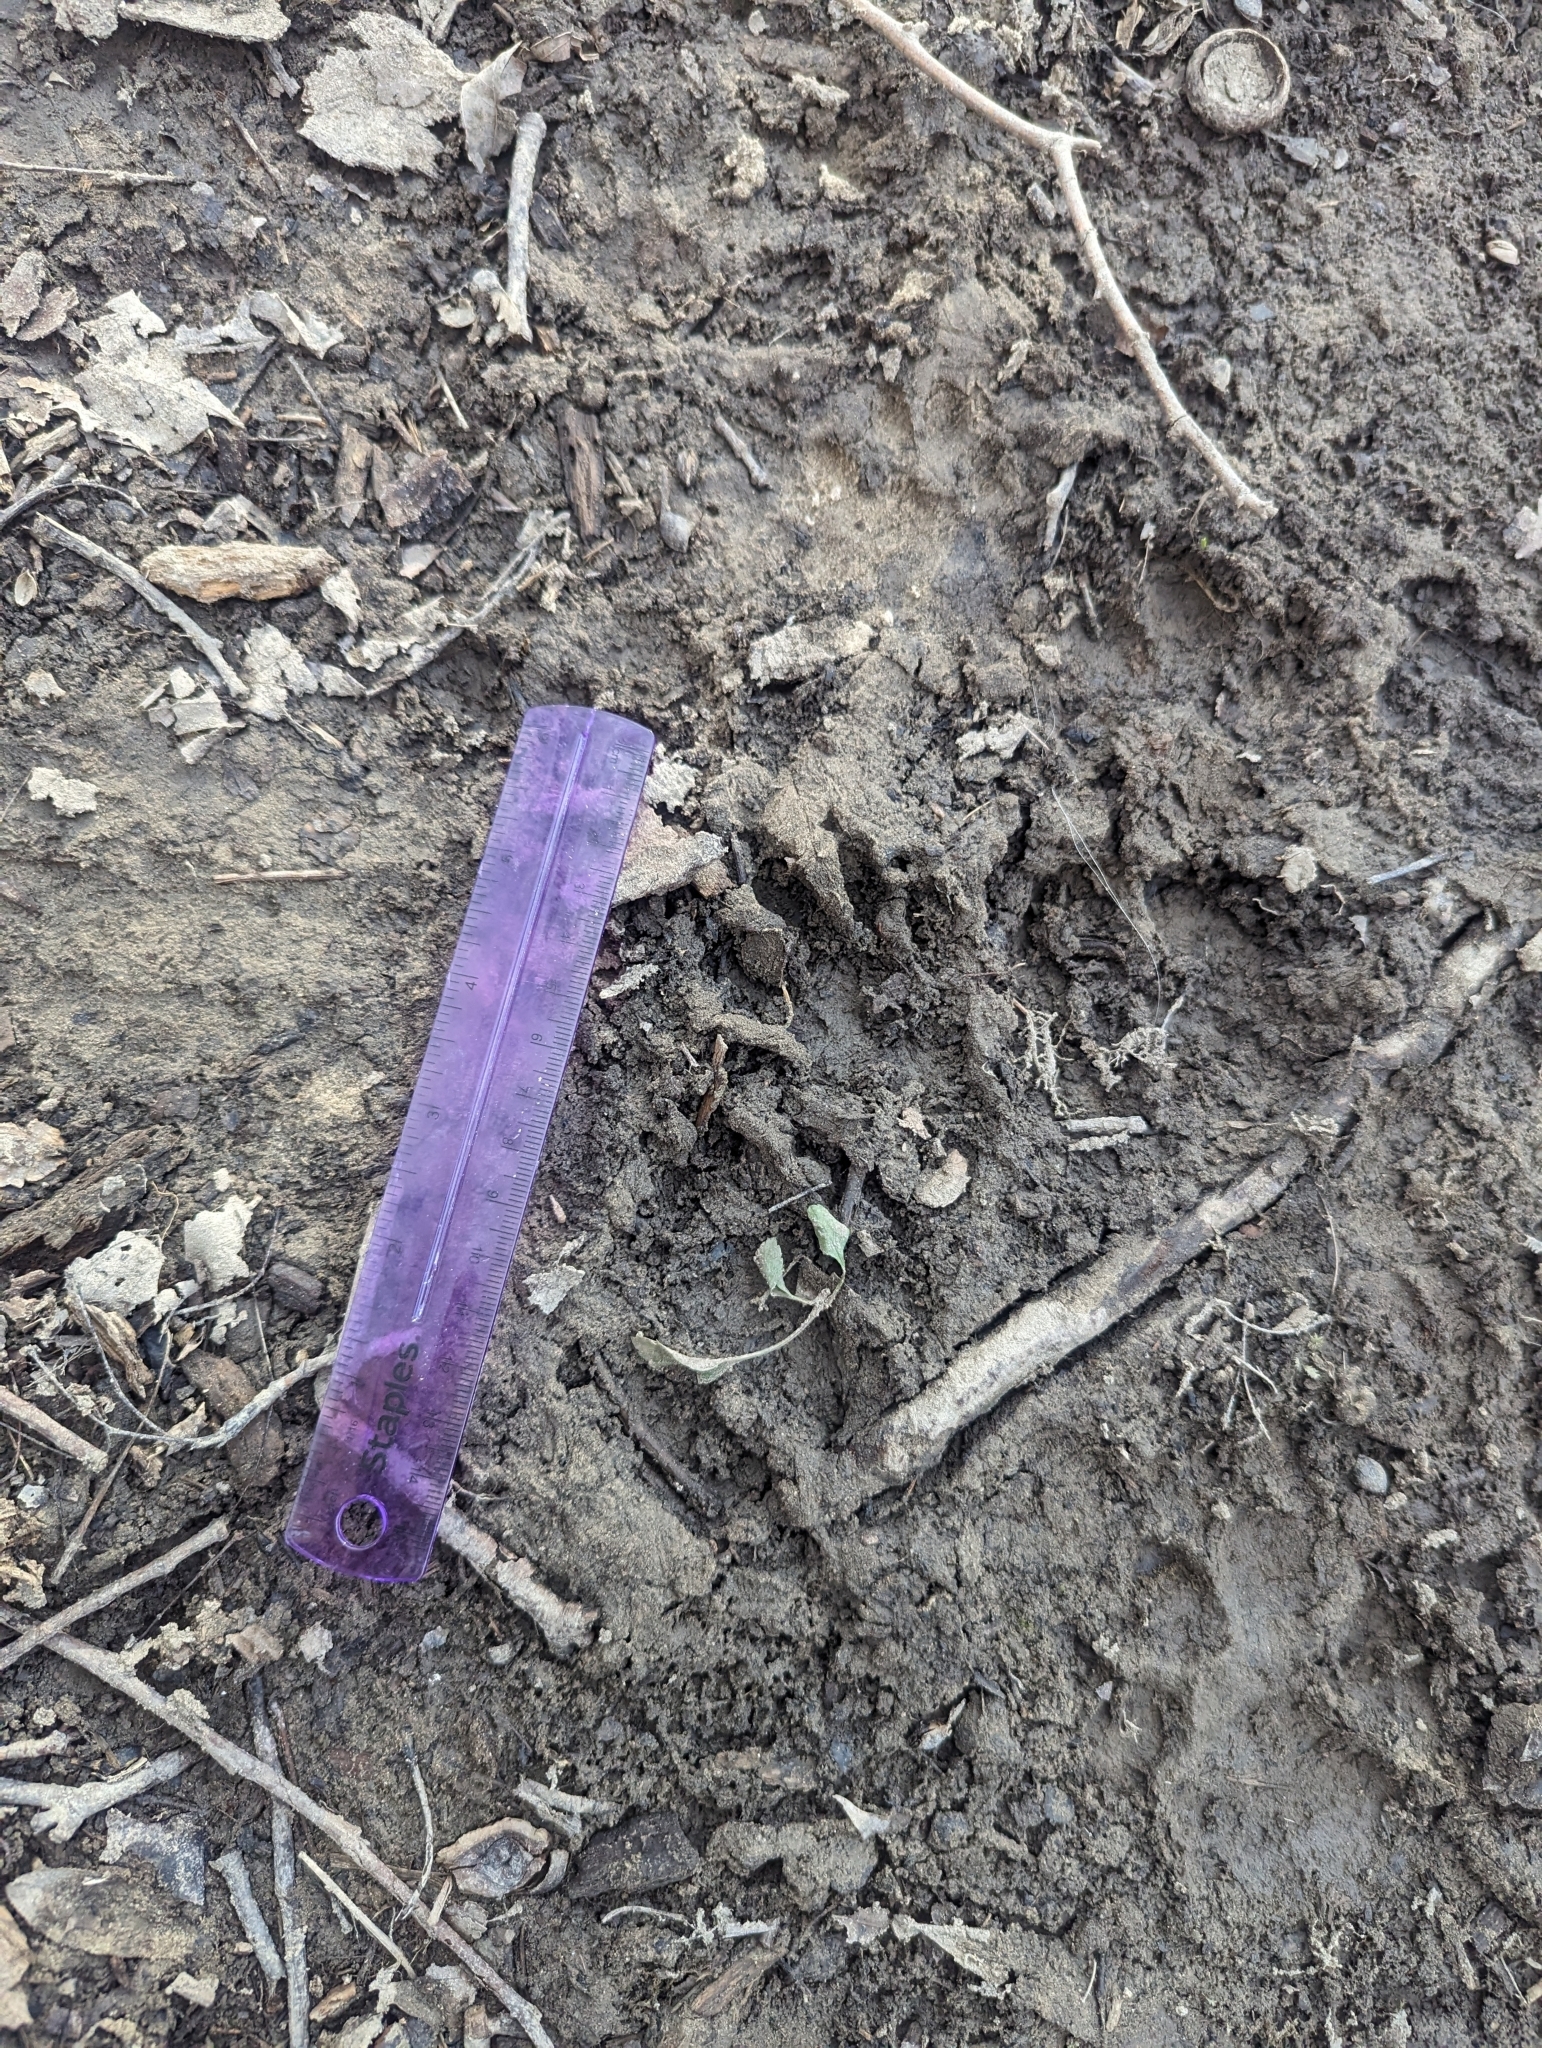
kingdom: Animalia
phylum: Chordata
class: Mammalia
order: Carnivora
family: Procyonidae
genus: Procyon
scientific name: Procyon lotor
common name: Raccoon
